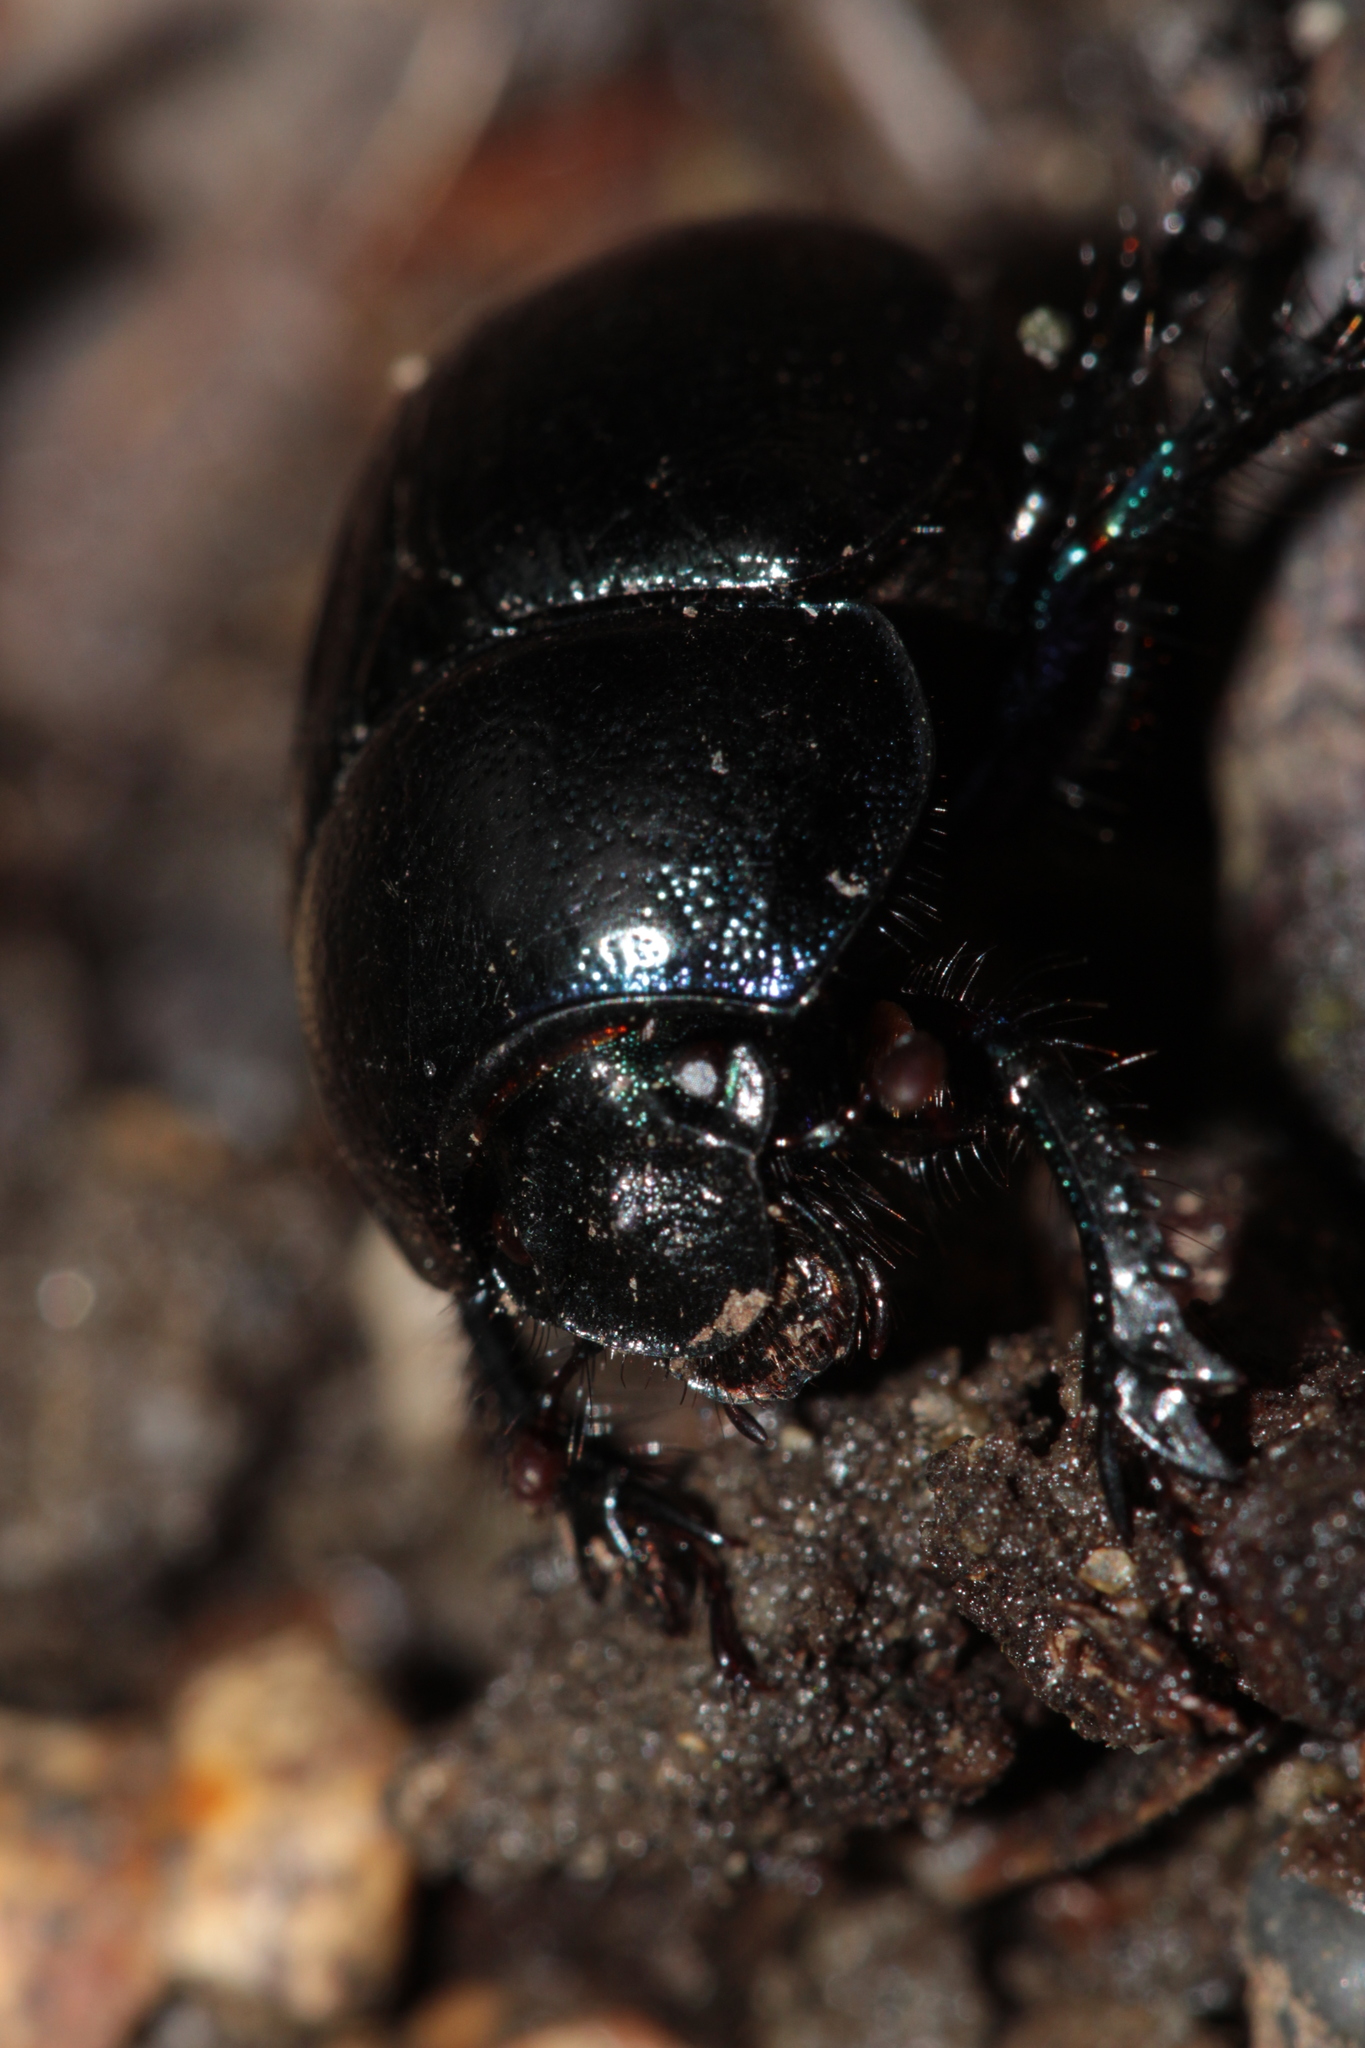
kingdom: Animalia
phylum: Arthropoda
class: Insecta
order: Coleoptera
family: Geotrupidae
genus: Anoplotrupes
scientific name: Anoplotrupes stercorosus
